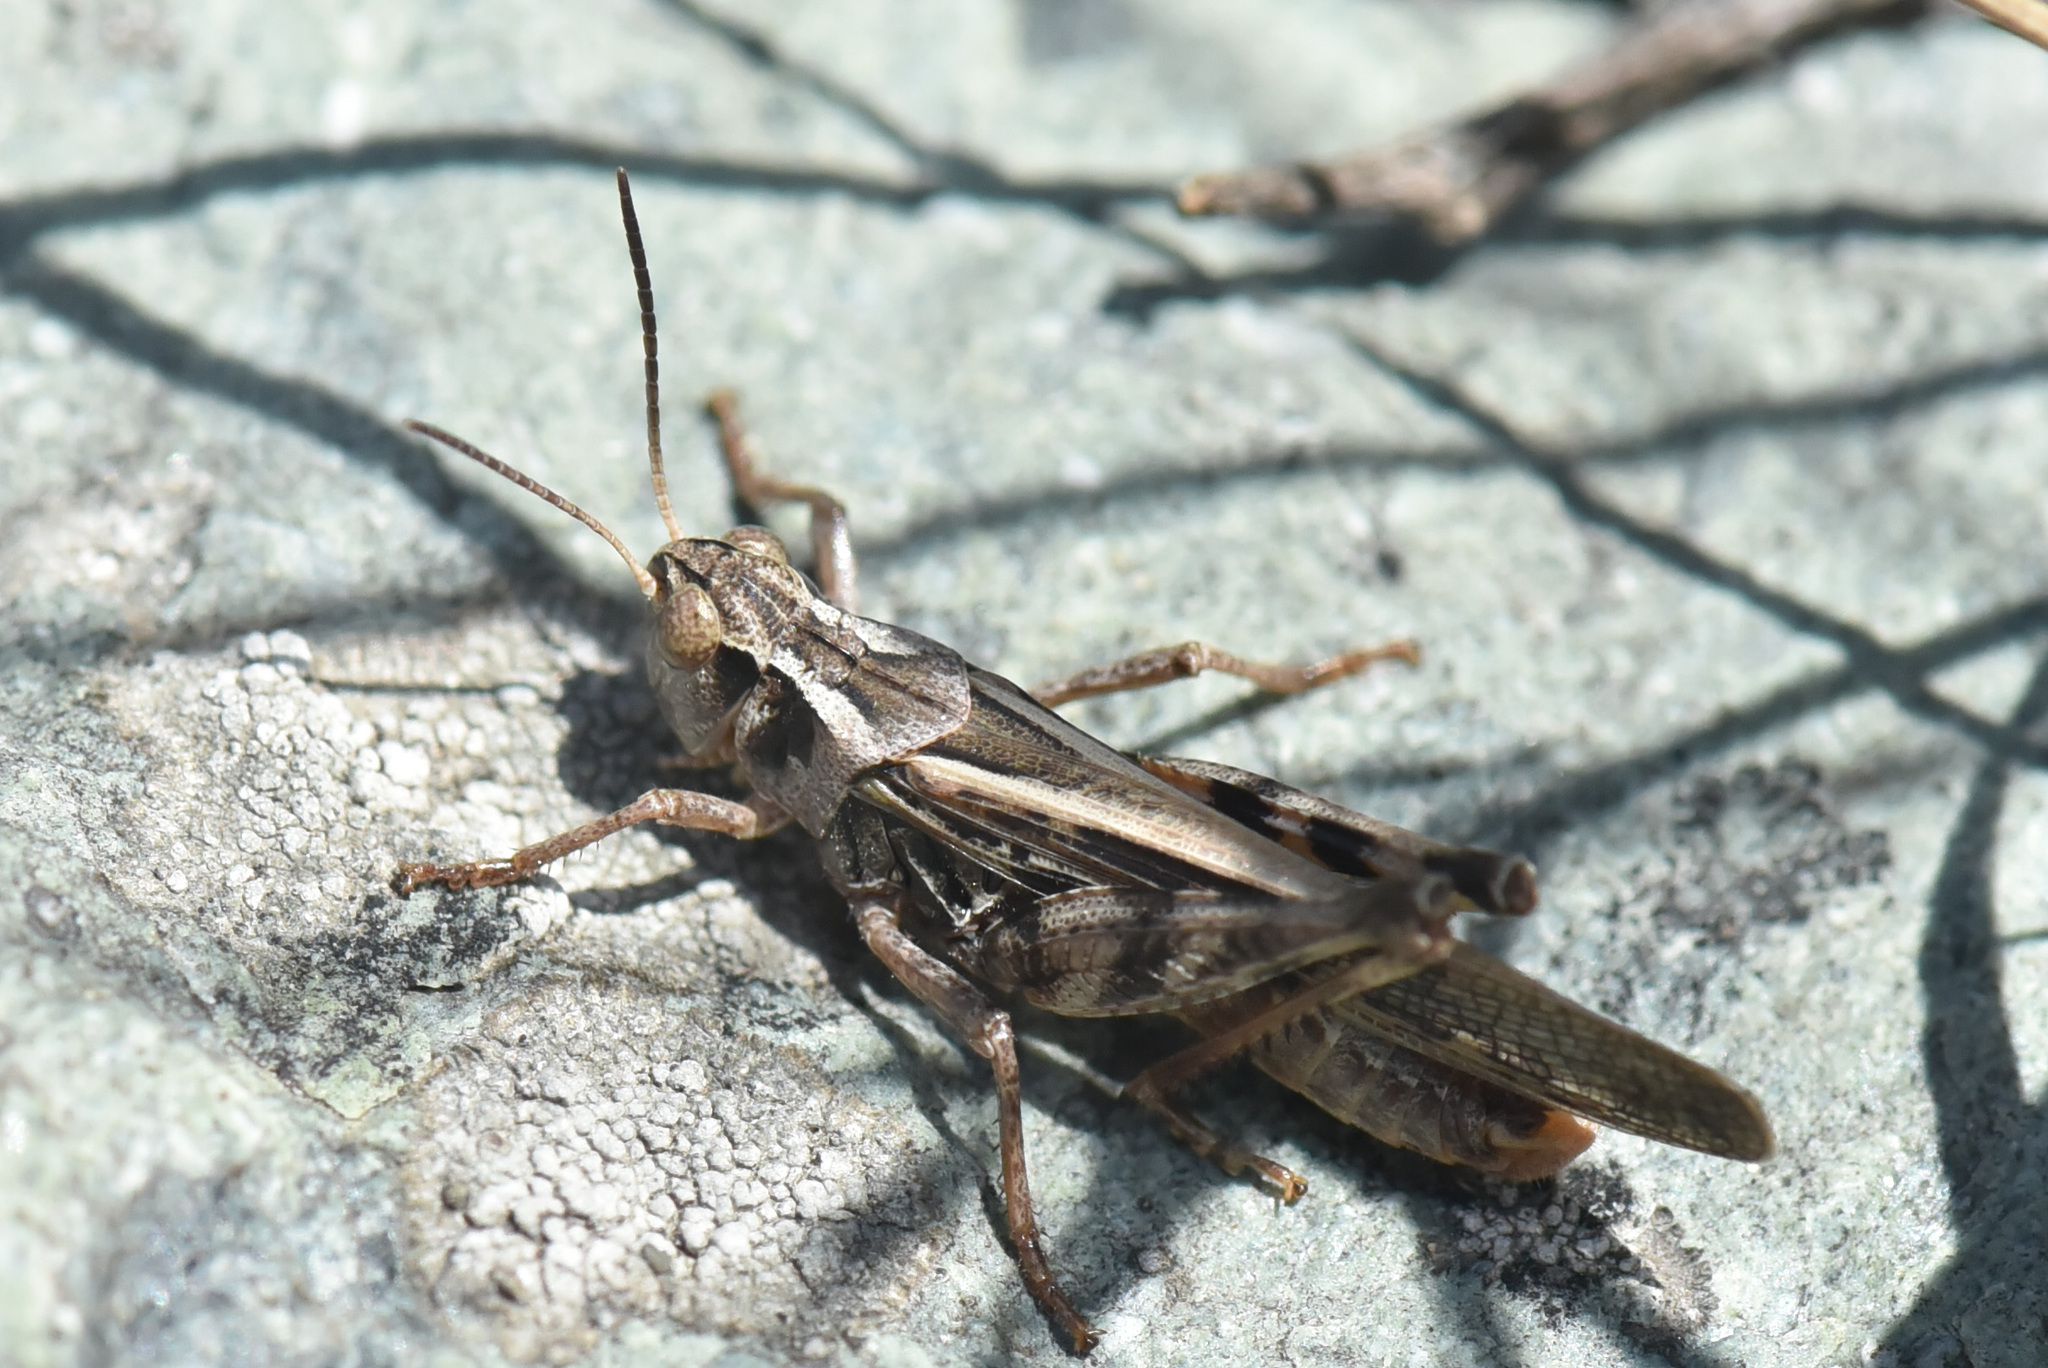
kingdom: Animalia
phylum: Arthropoda
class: Insecta
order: Orthoptera
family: Acrididae
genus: Camnula
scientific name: Camnula pellucida
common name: Clear-winged grasshopper
